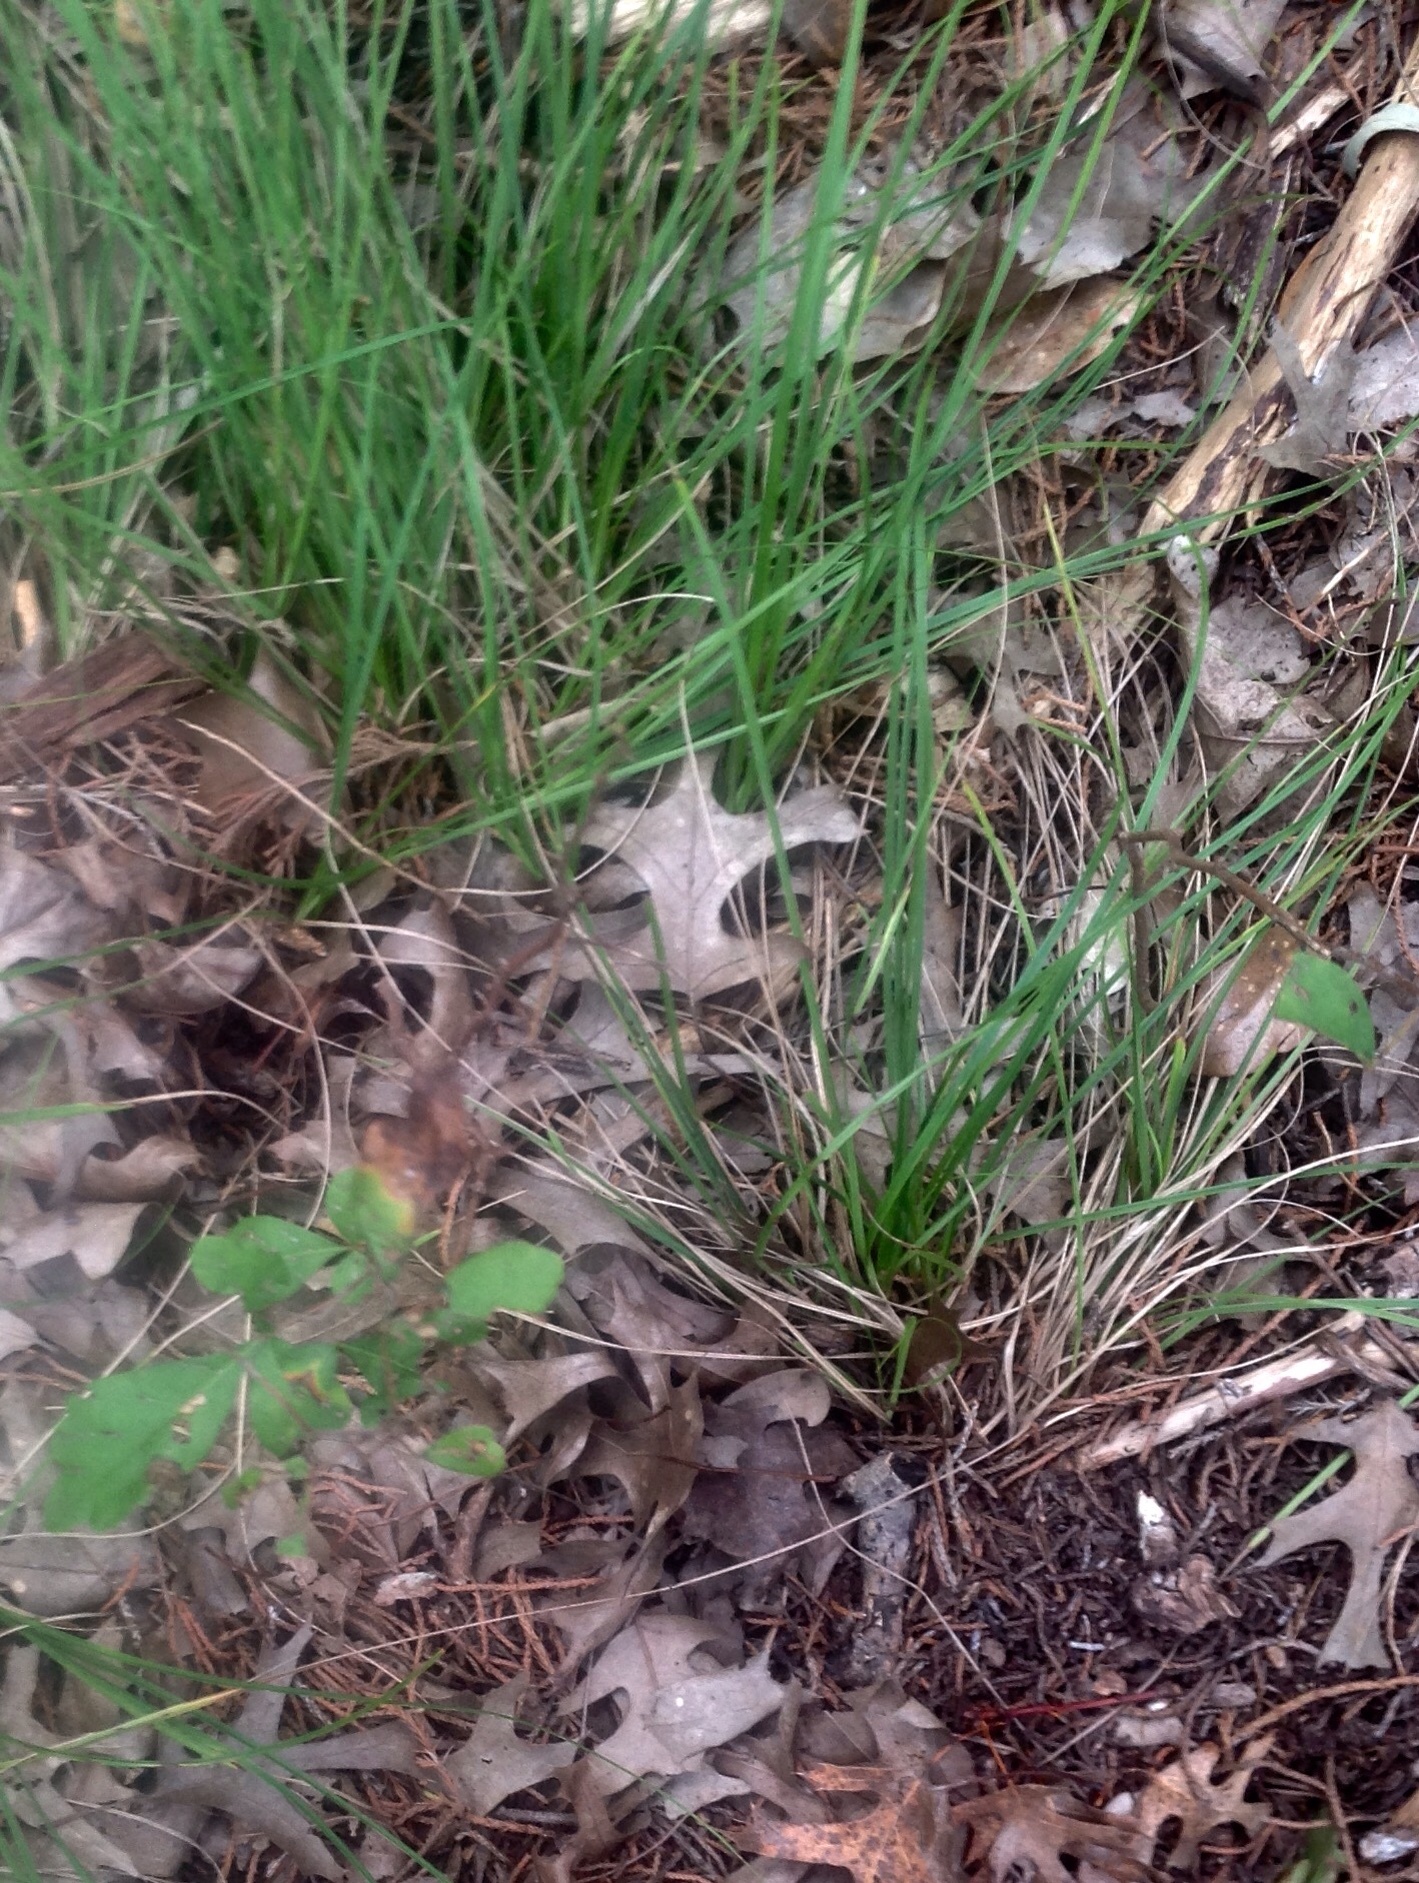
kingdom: Plantae
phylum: Tracheophyta
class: Liliopsida
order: Poales
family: Cyperaceae
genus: Carex
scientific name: Carex planostachys
